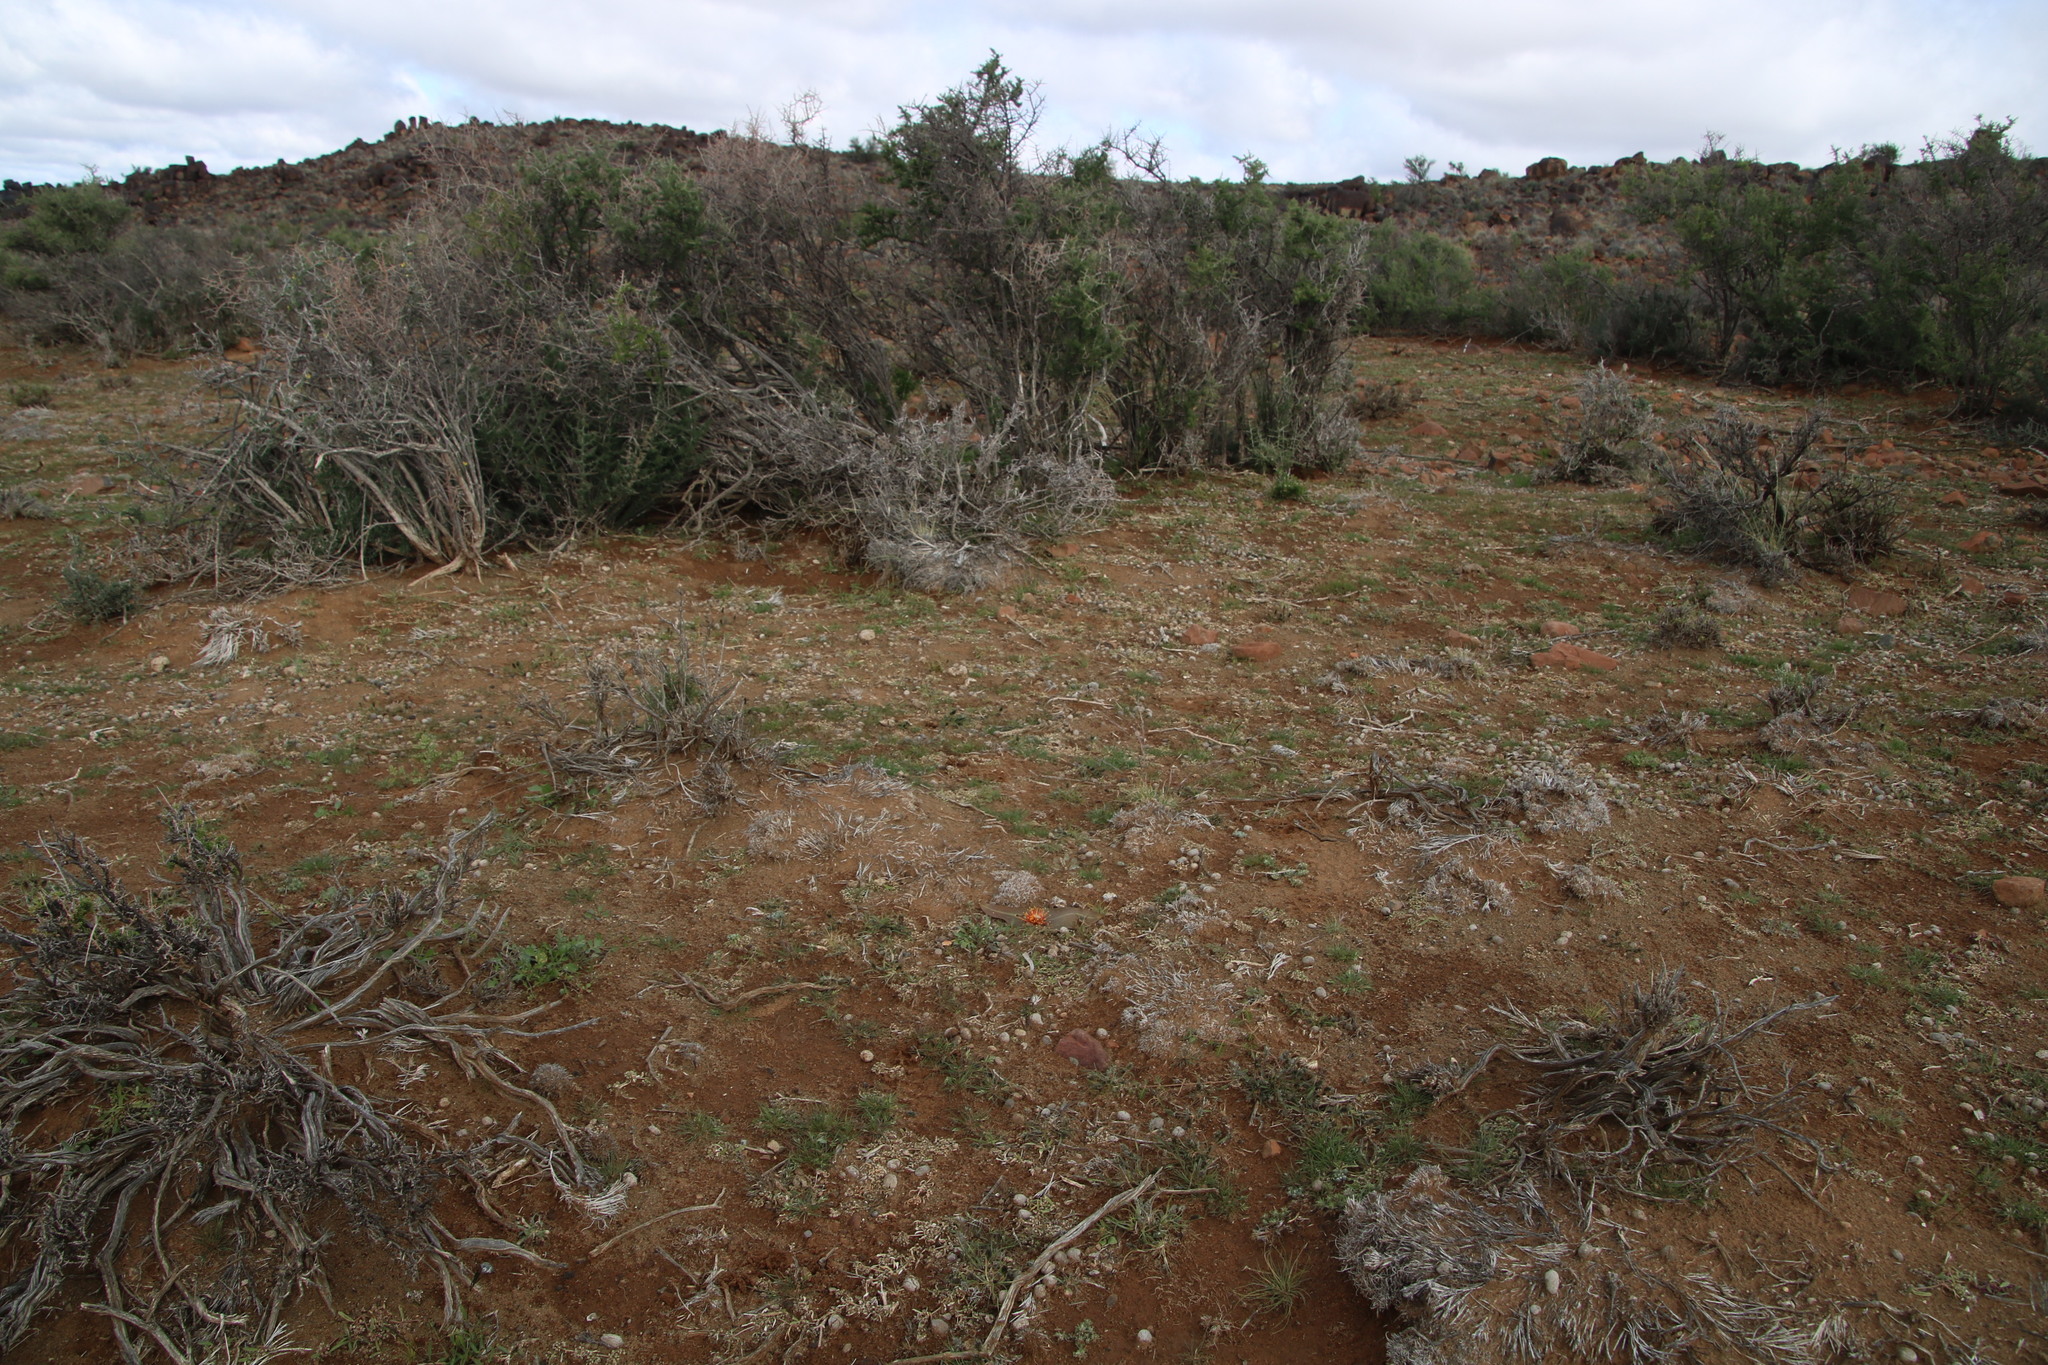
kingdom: Plantae
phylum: Tracheophyta
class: Liliopsida
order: Asparagales
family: Asparagaceae
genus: Daubenya
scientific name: Daubenya marginata
